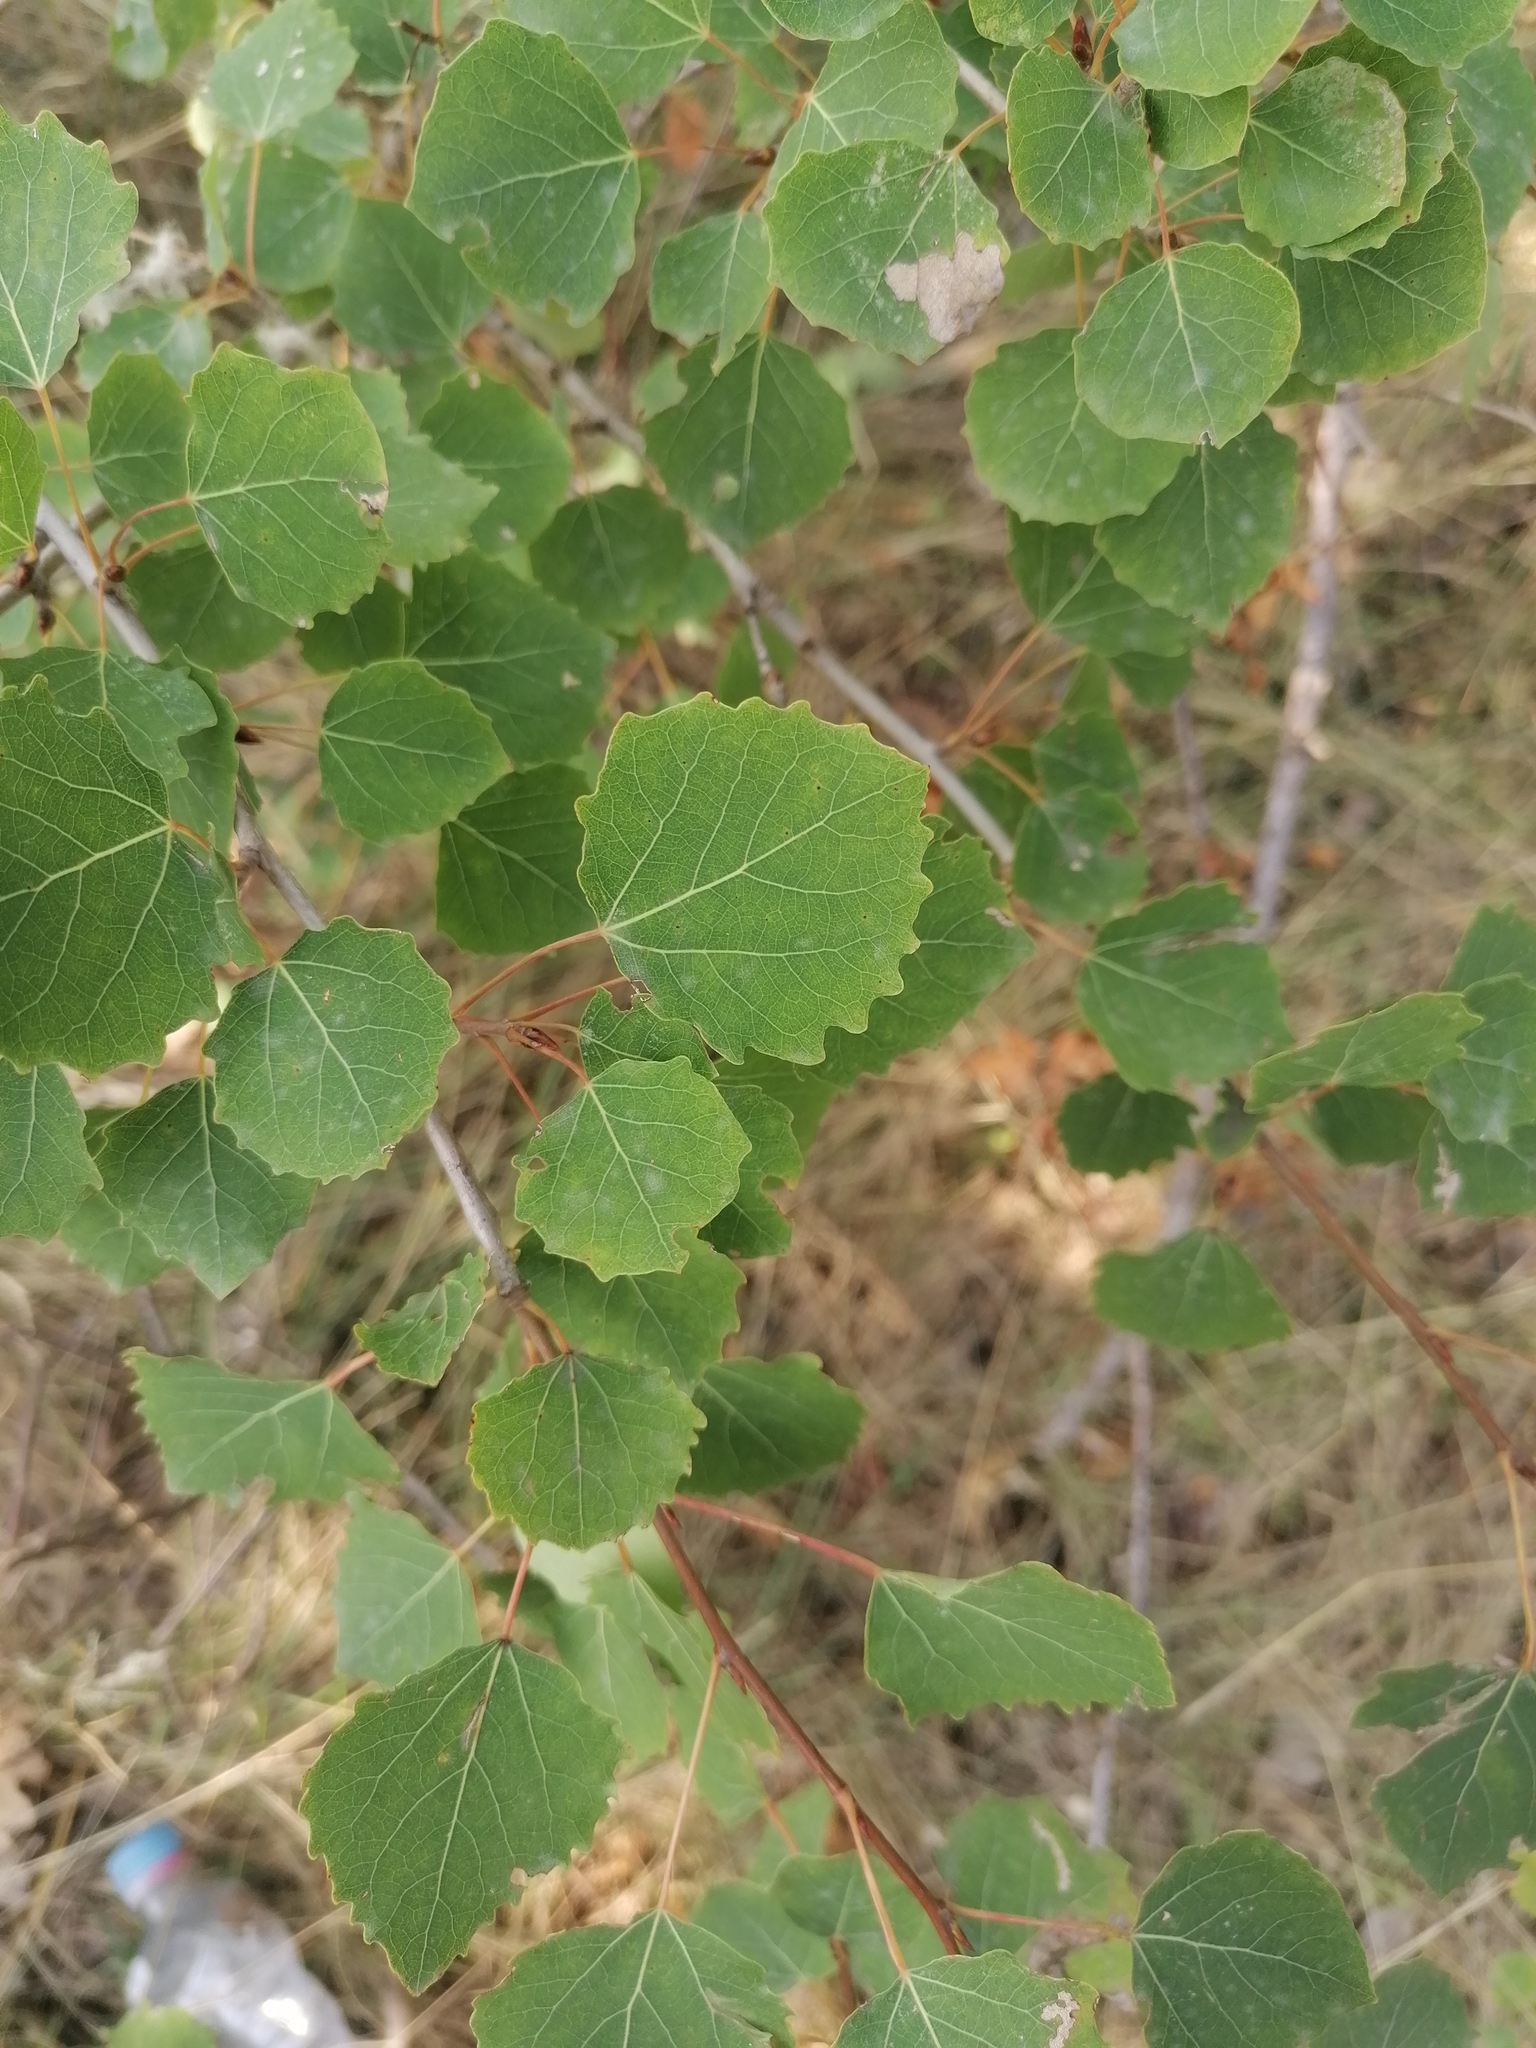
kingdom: Plantae
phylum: Tracheophyta
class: Magnoliopsida
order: Malpighiales
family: Salicaceae
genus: Populus
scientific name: Populus tremula
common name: European aspen
